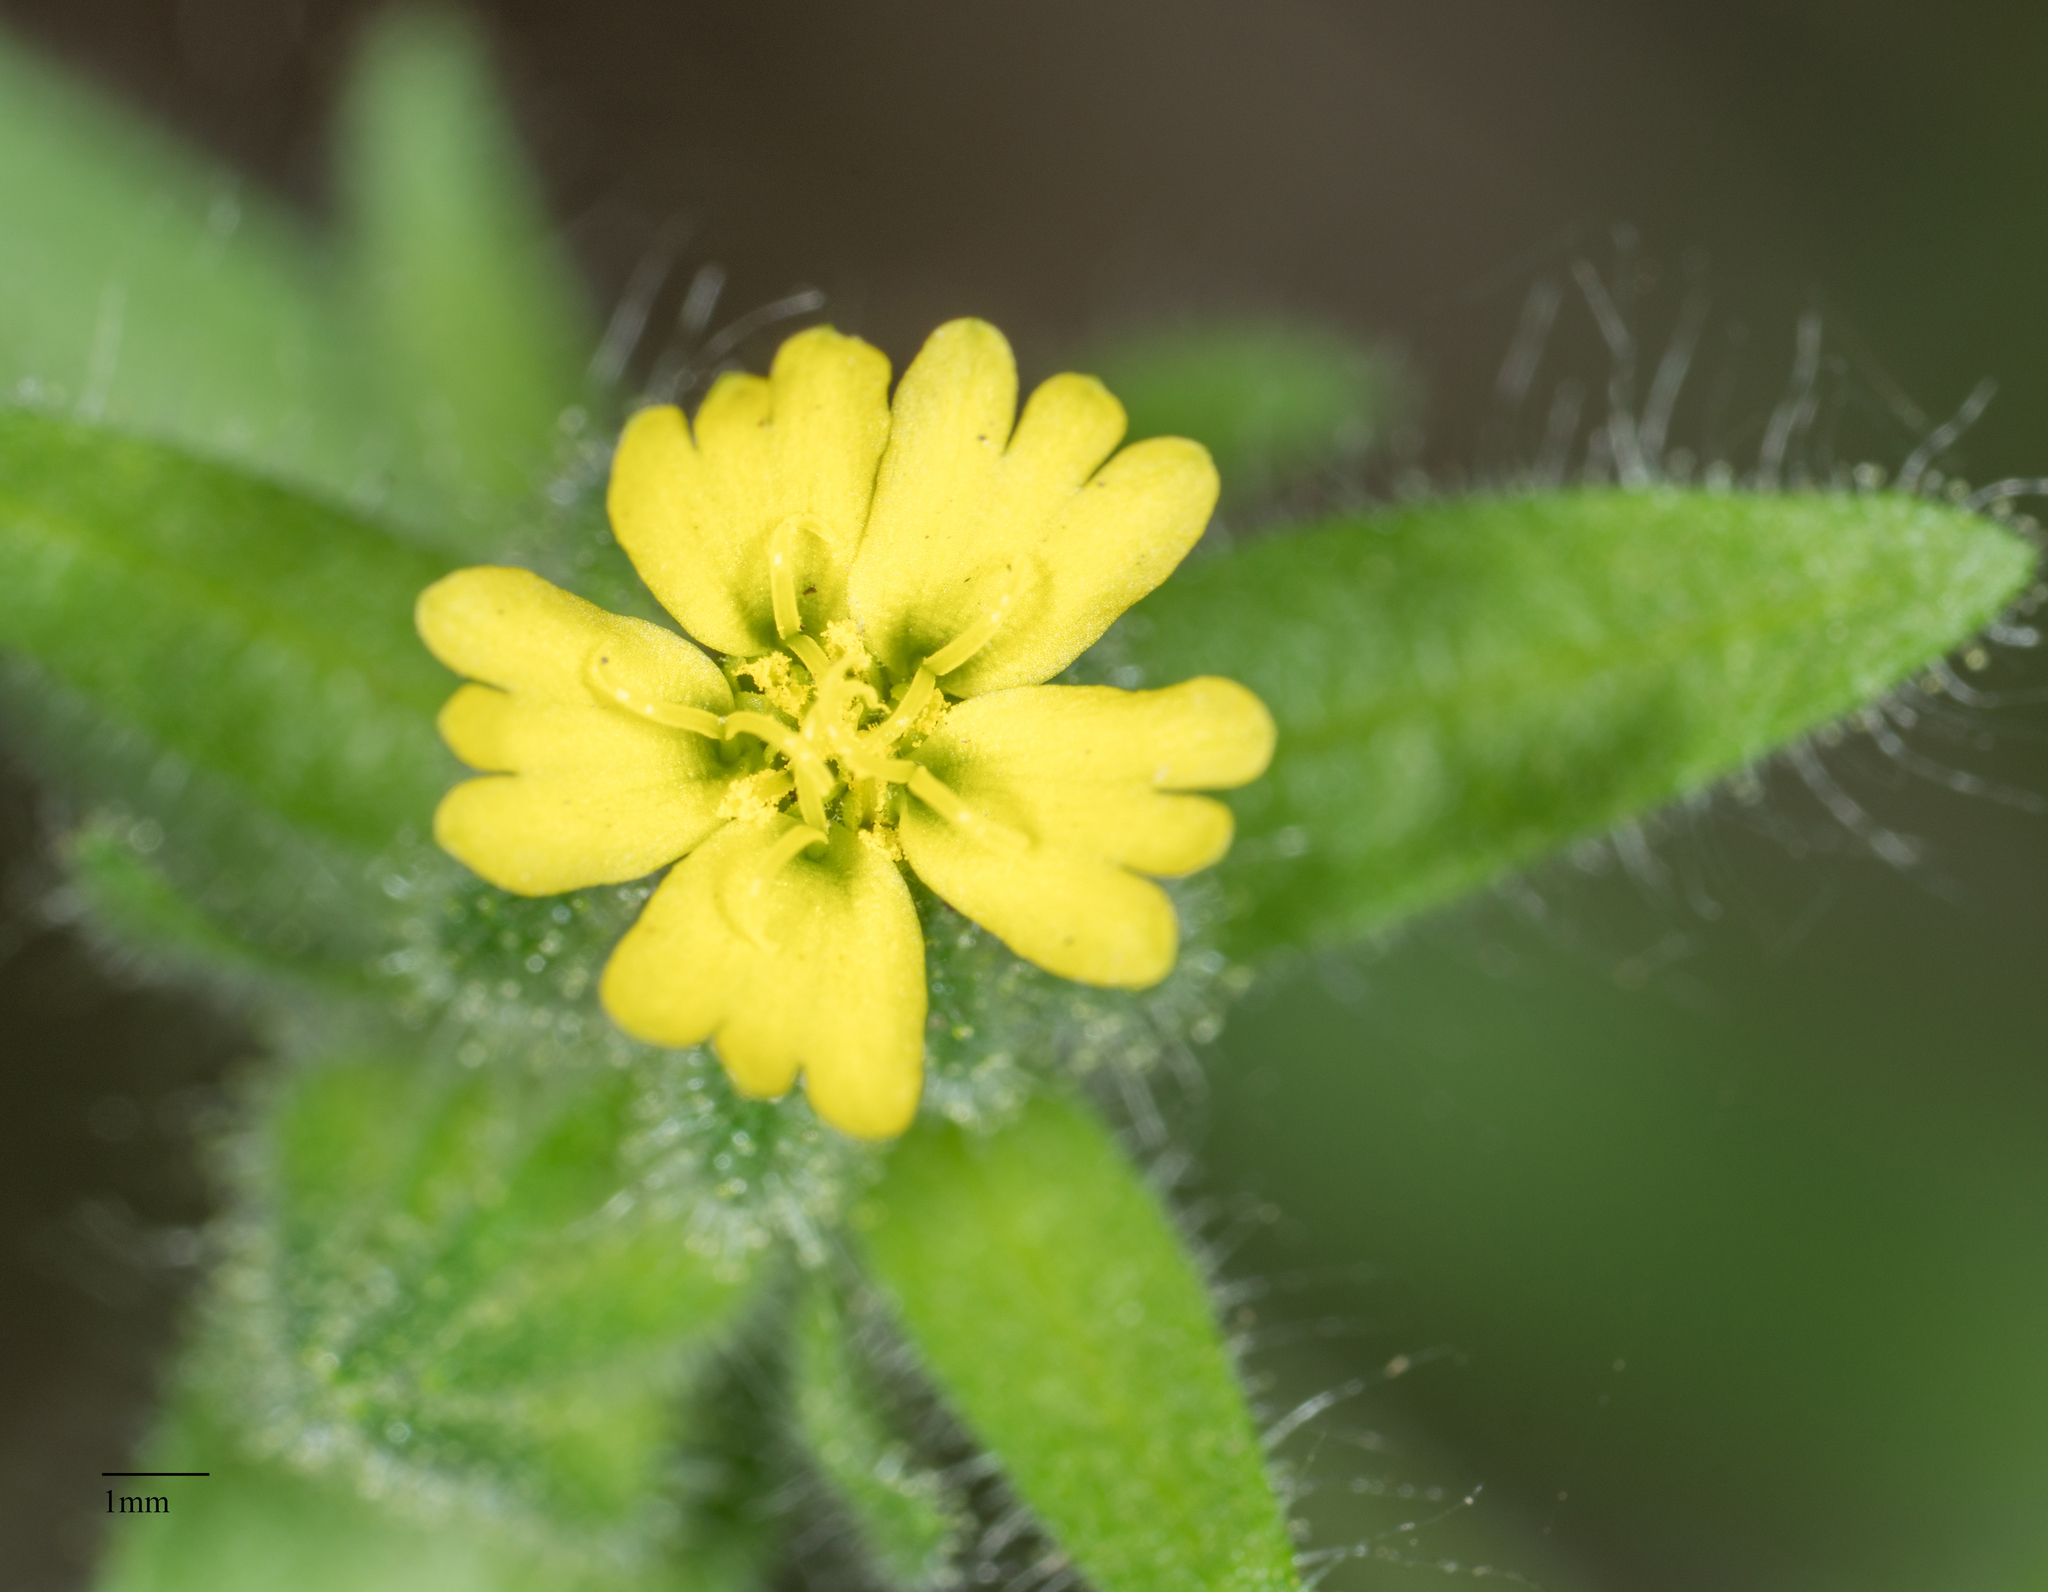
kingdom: Plantae
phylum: Tracheophyta
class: Magnoliopsida
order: Asterales
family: Asteraceae
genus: Madia
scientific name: Madia gracilis
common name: Grassy tarweed
